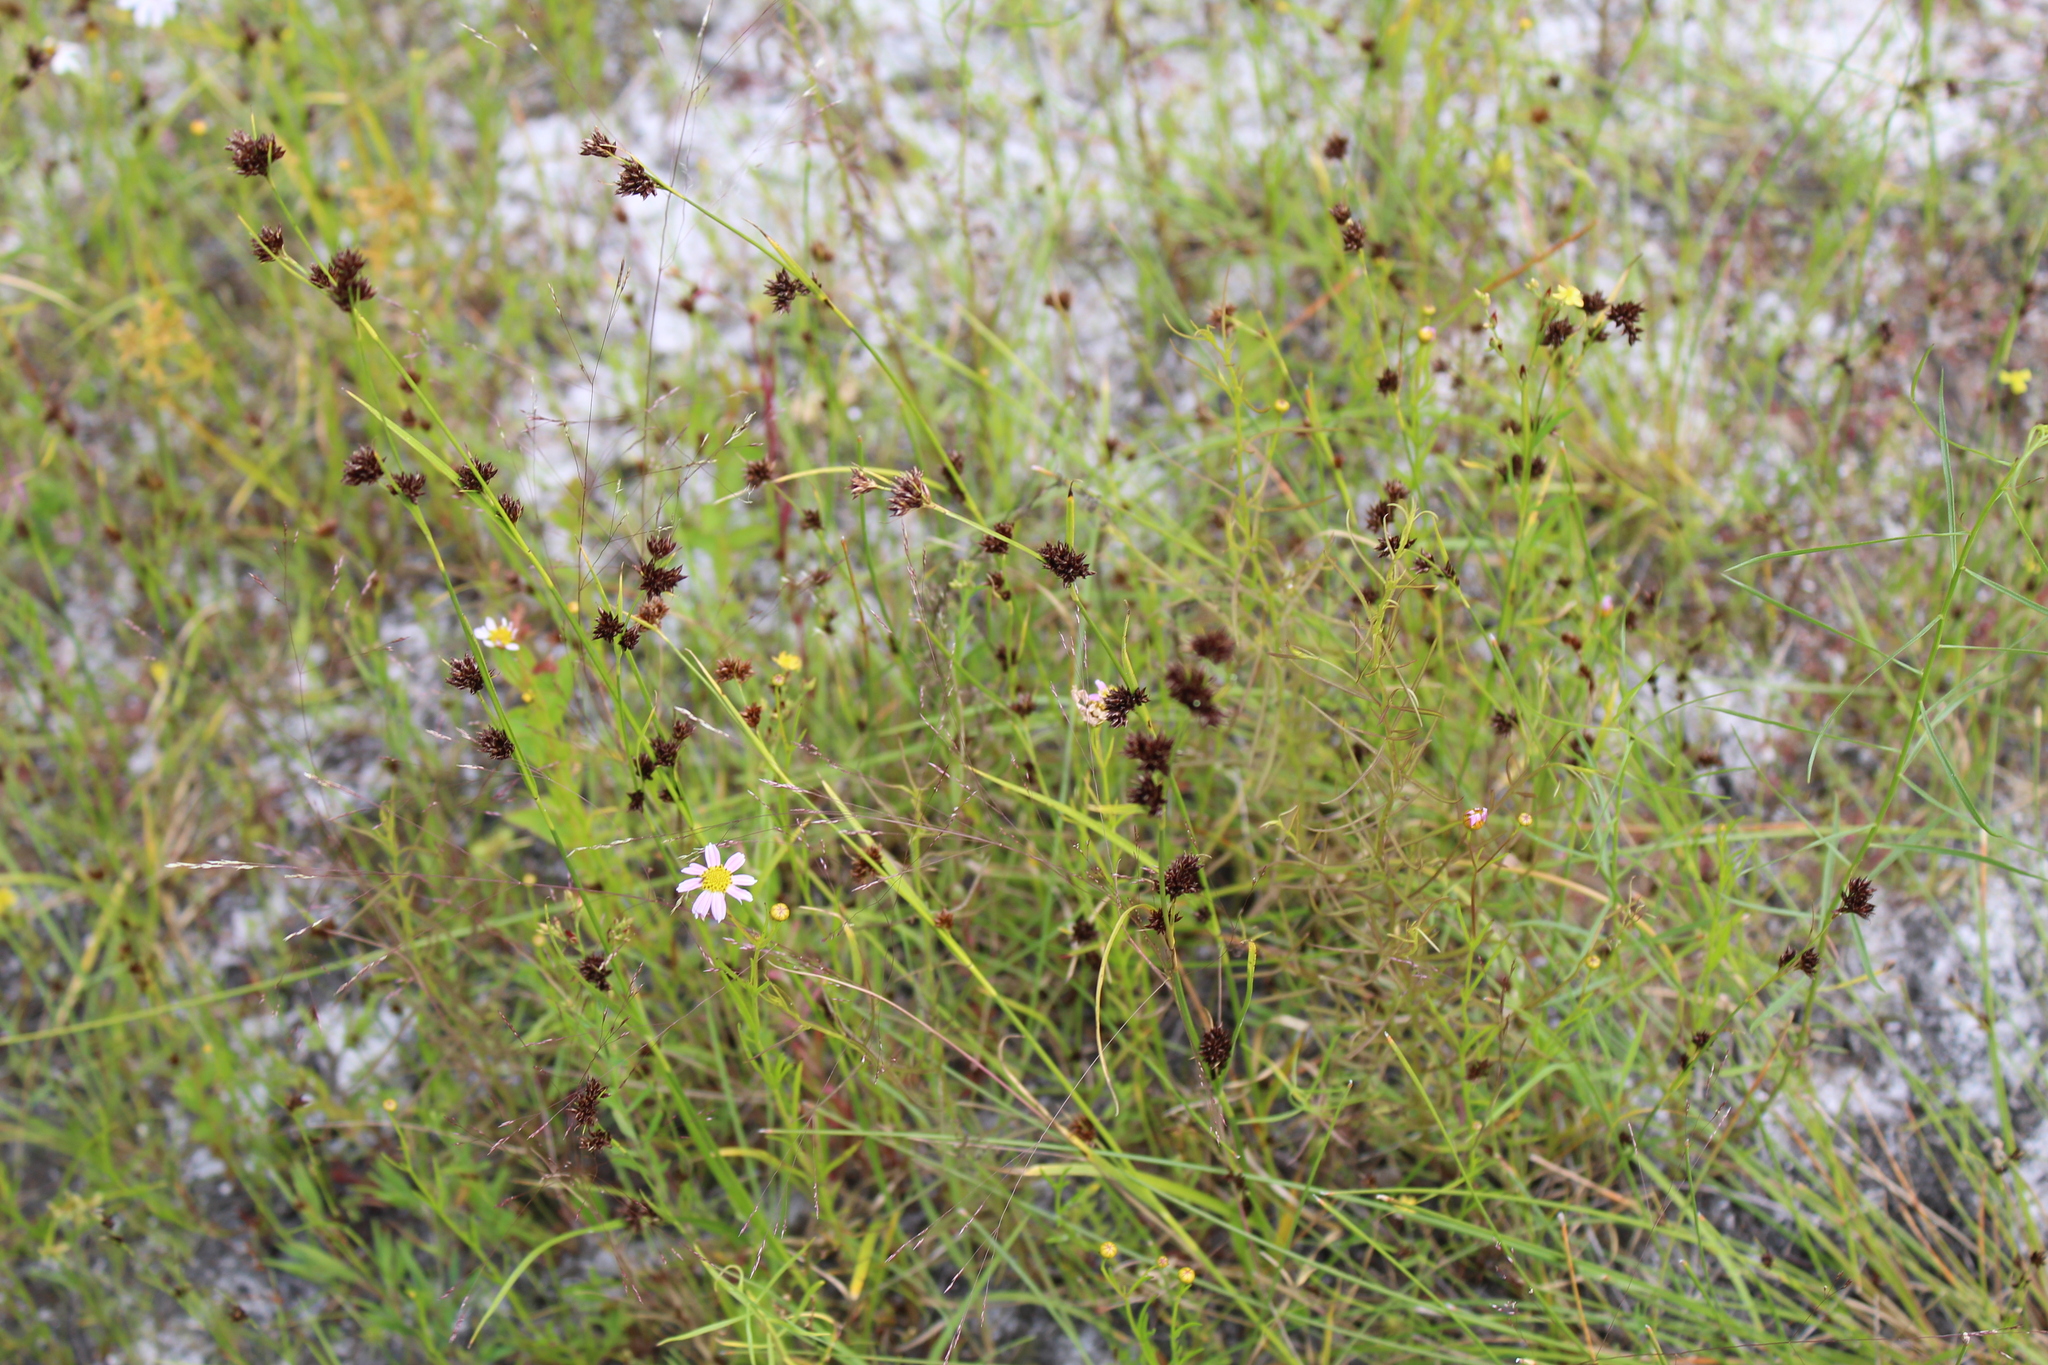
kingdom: Plantae
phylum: Tracheophyta
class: Liliopsida
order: Poales
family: Cyperaceae
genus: Rhynchospora
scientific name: Rhynchospora capitellata
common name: Brownish beaksedge
